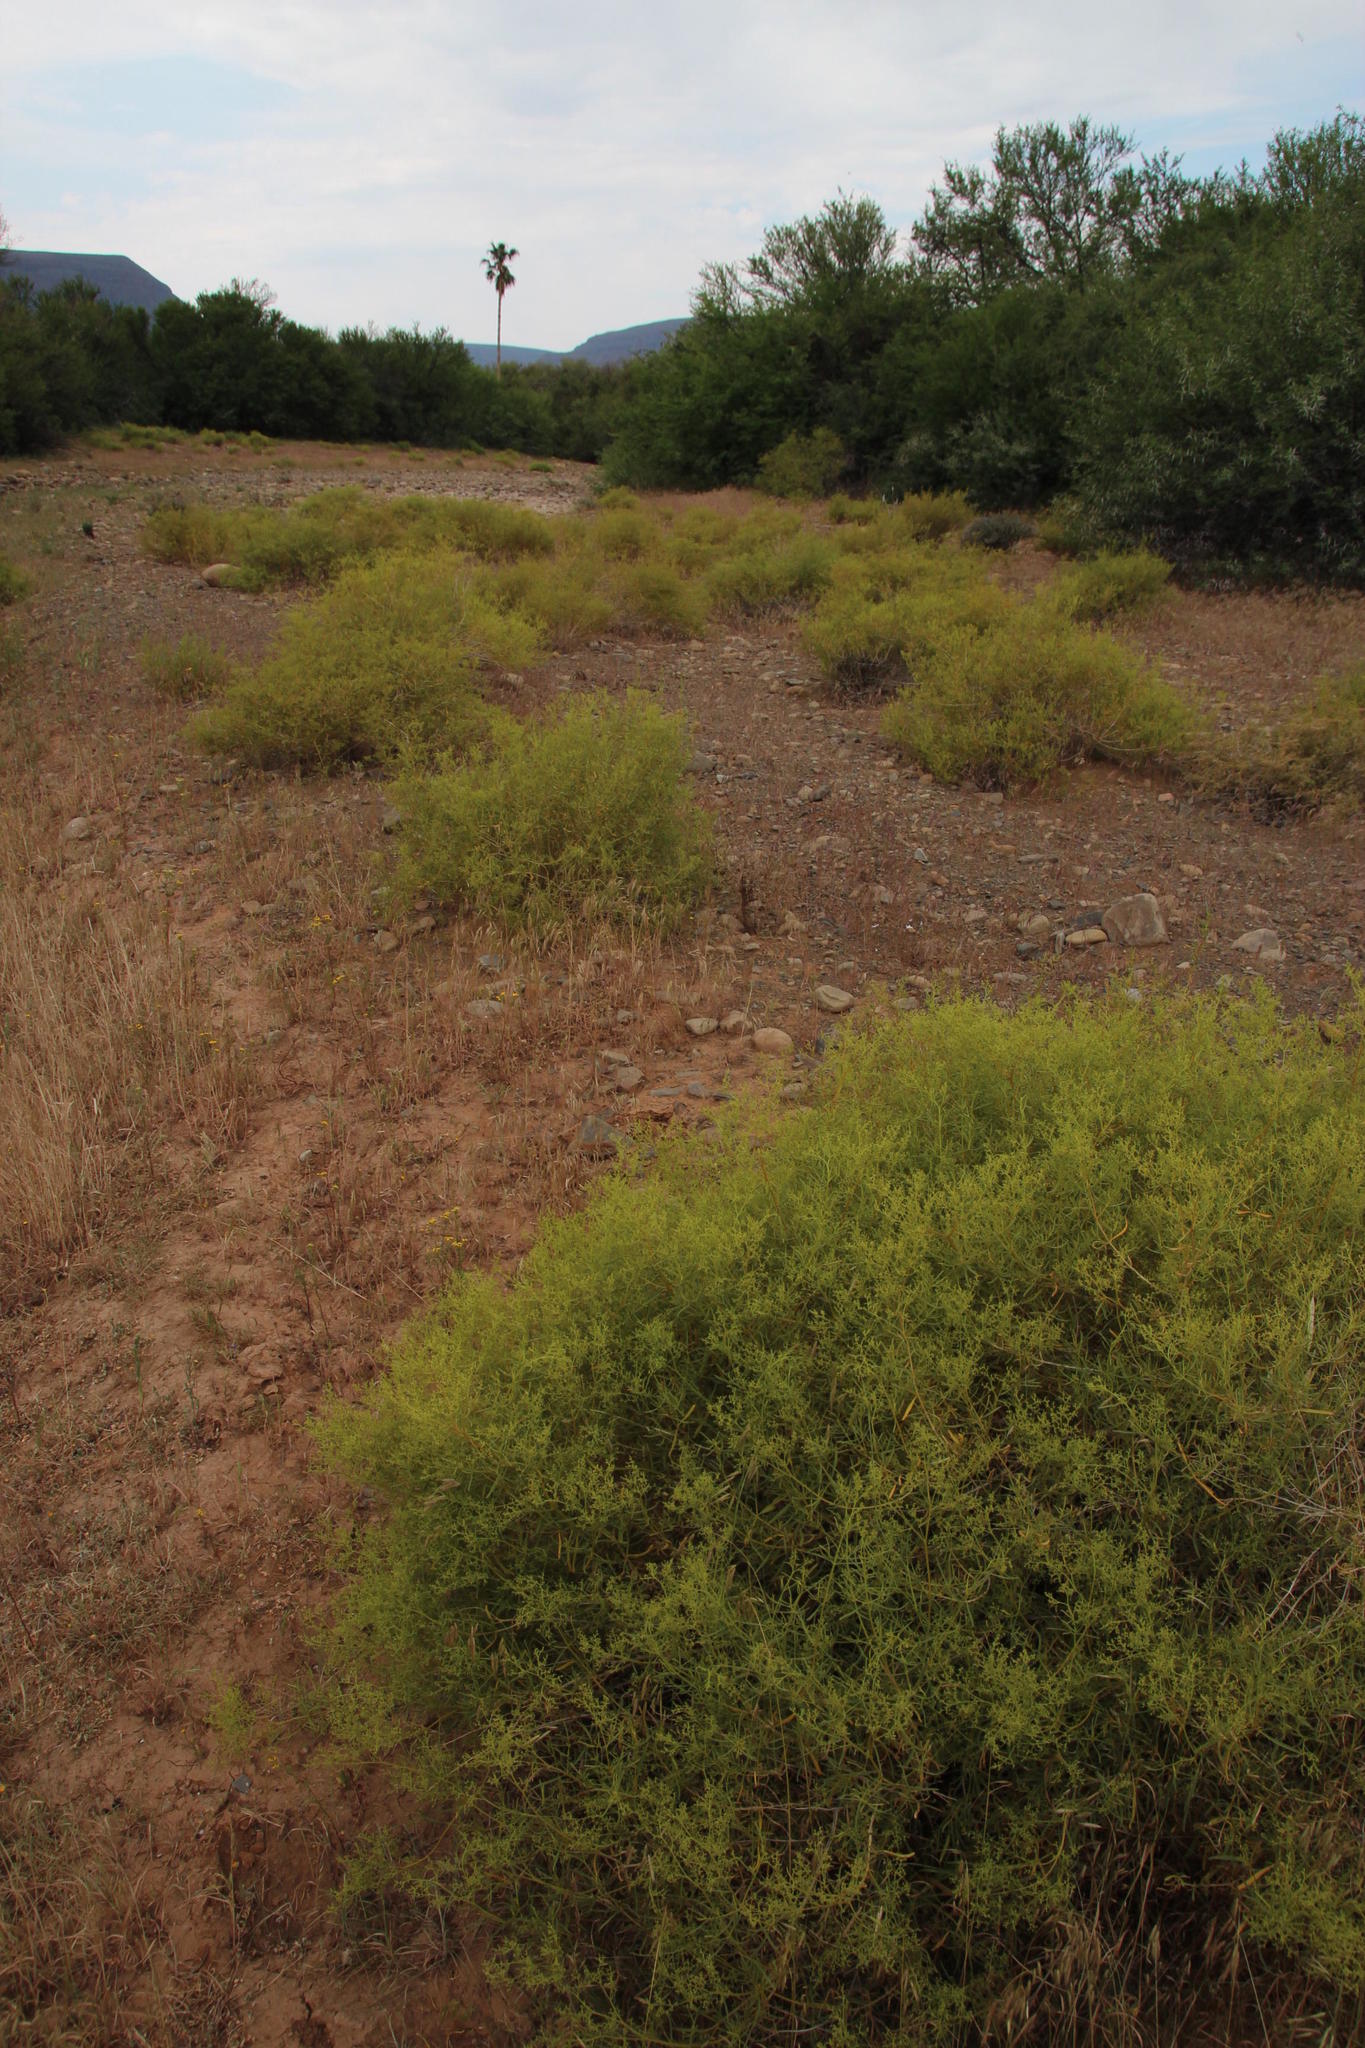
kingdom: Plantae
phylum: Tracheophyta
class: Magnoliopsida
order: Caryophyllales
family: Aizoaceae
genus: Aizoon
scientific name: Aizoon africanum
